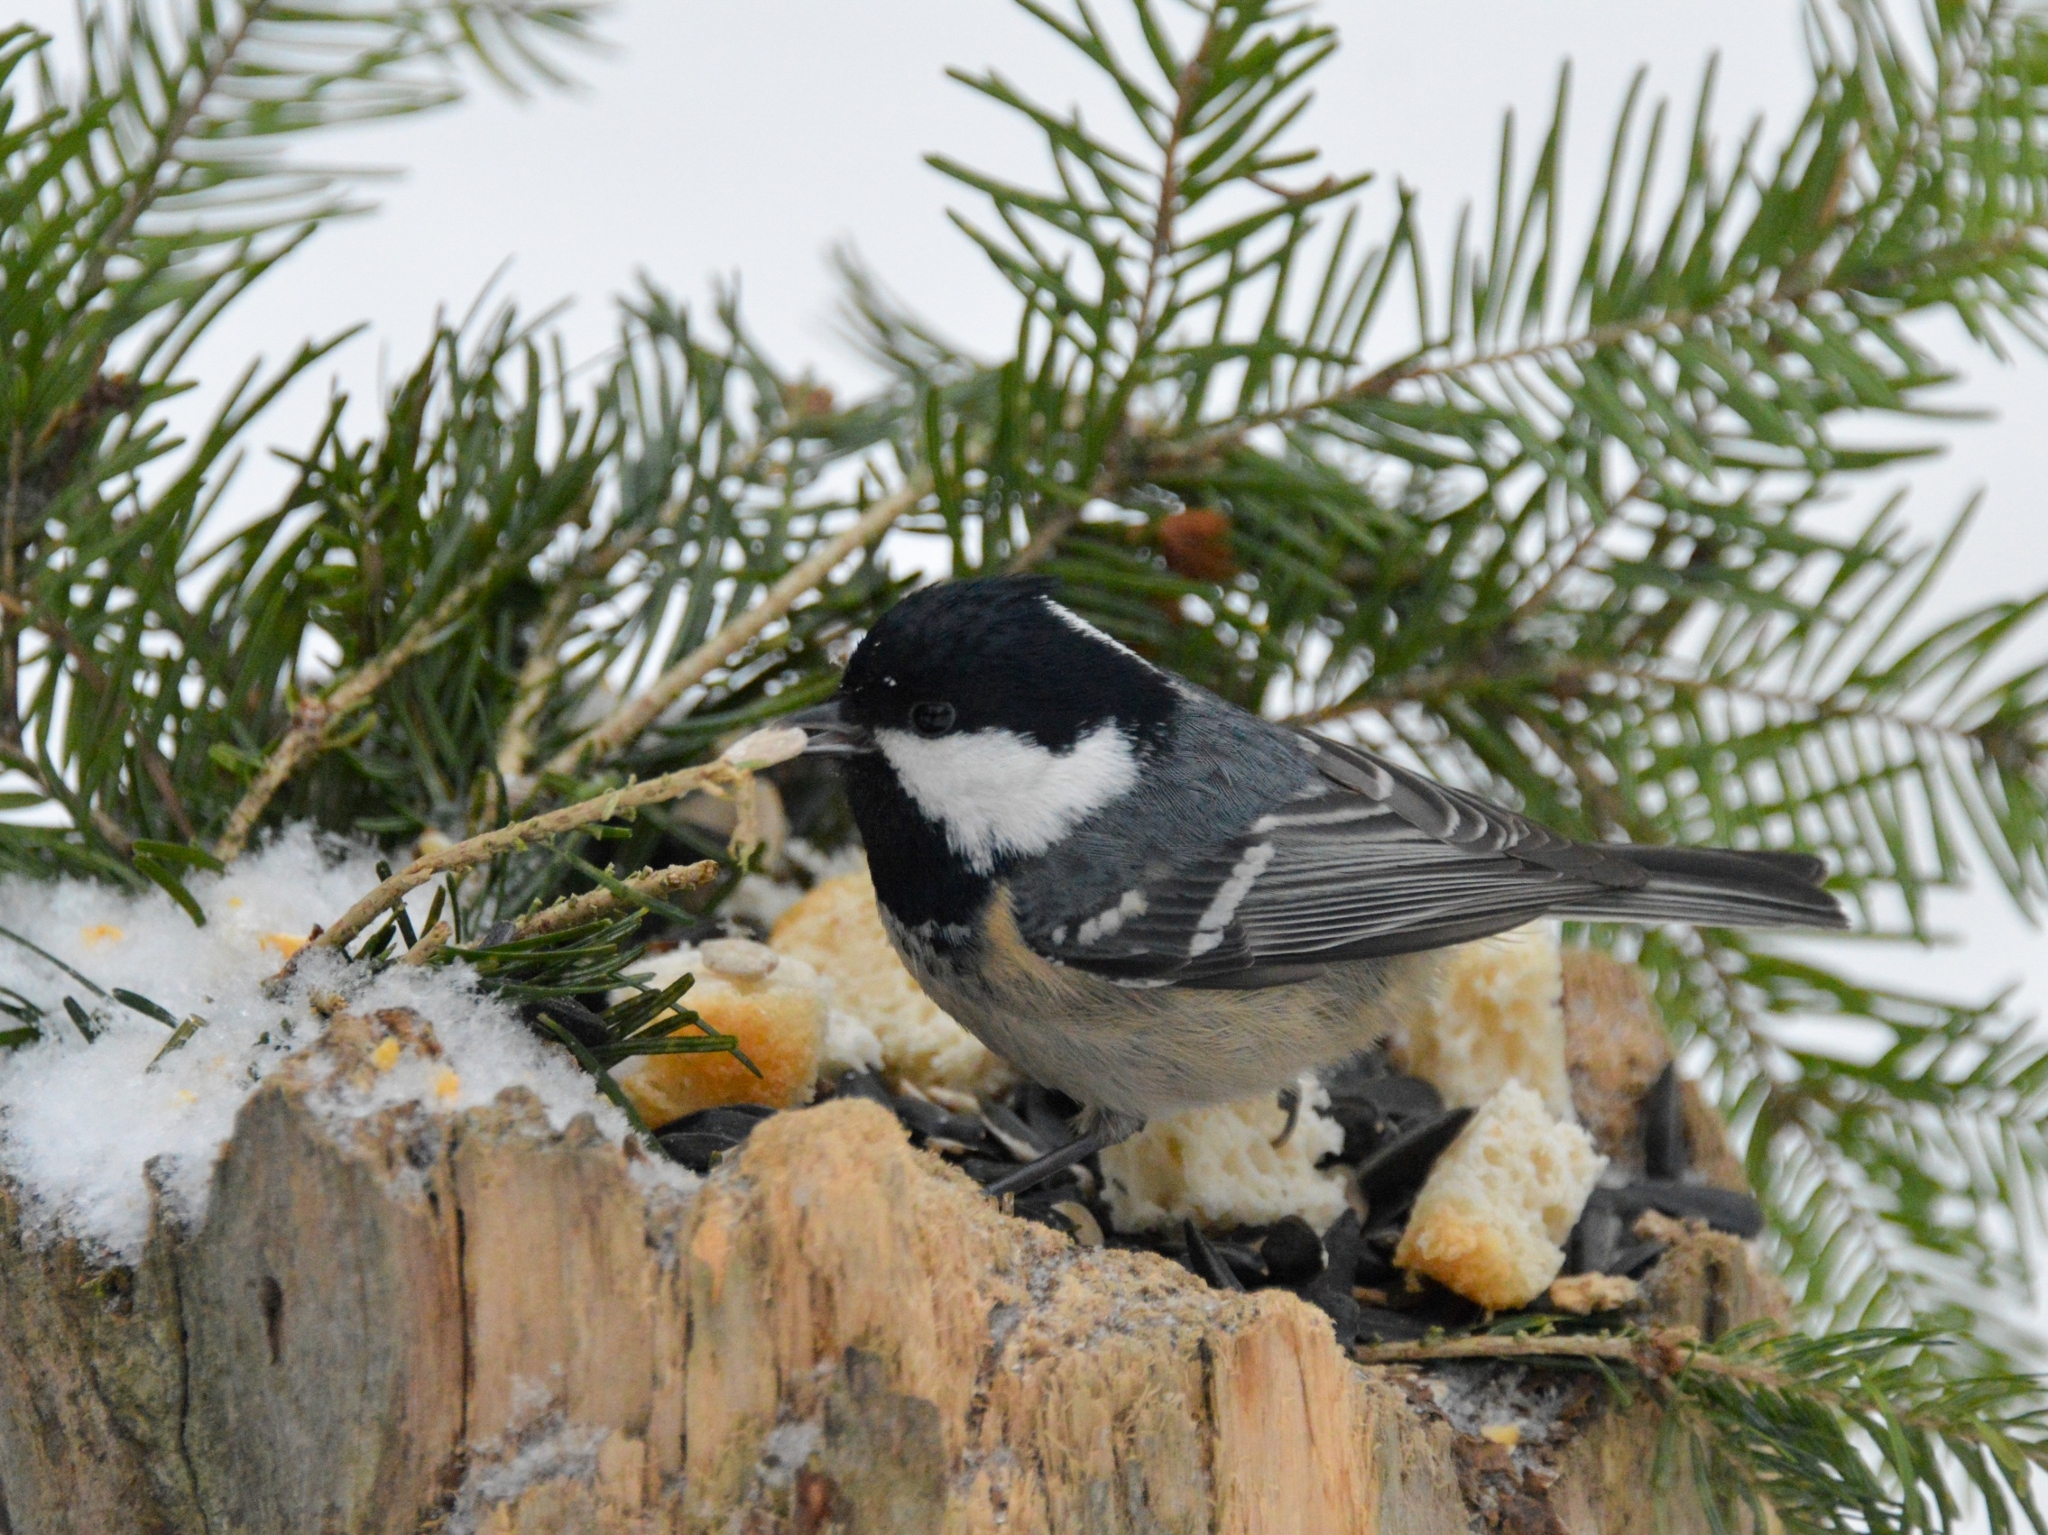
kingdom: Animalia
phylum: Chordata
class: Aves
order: Passeriformes
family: Paridae
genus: Periparus
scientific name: Periparus ater
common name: Coal tit
